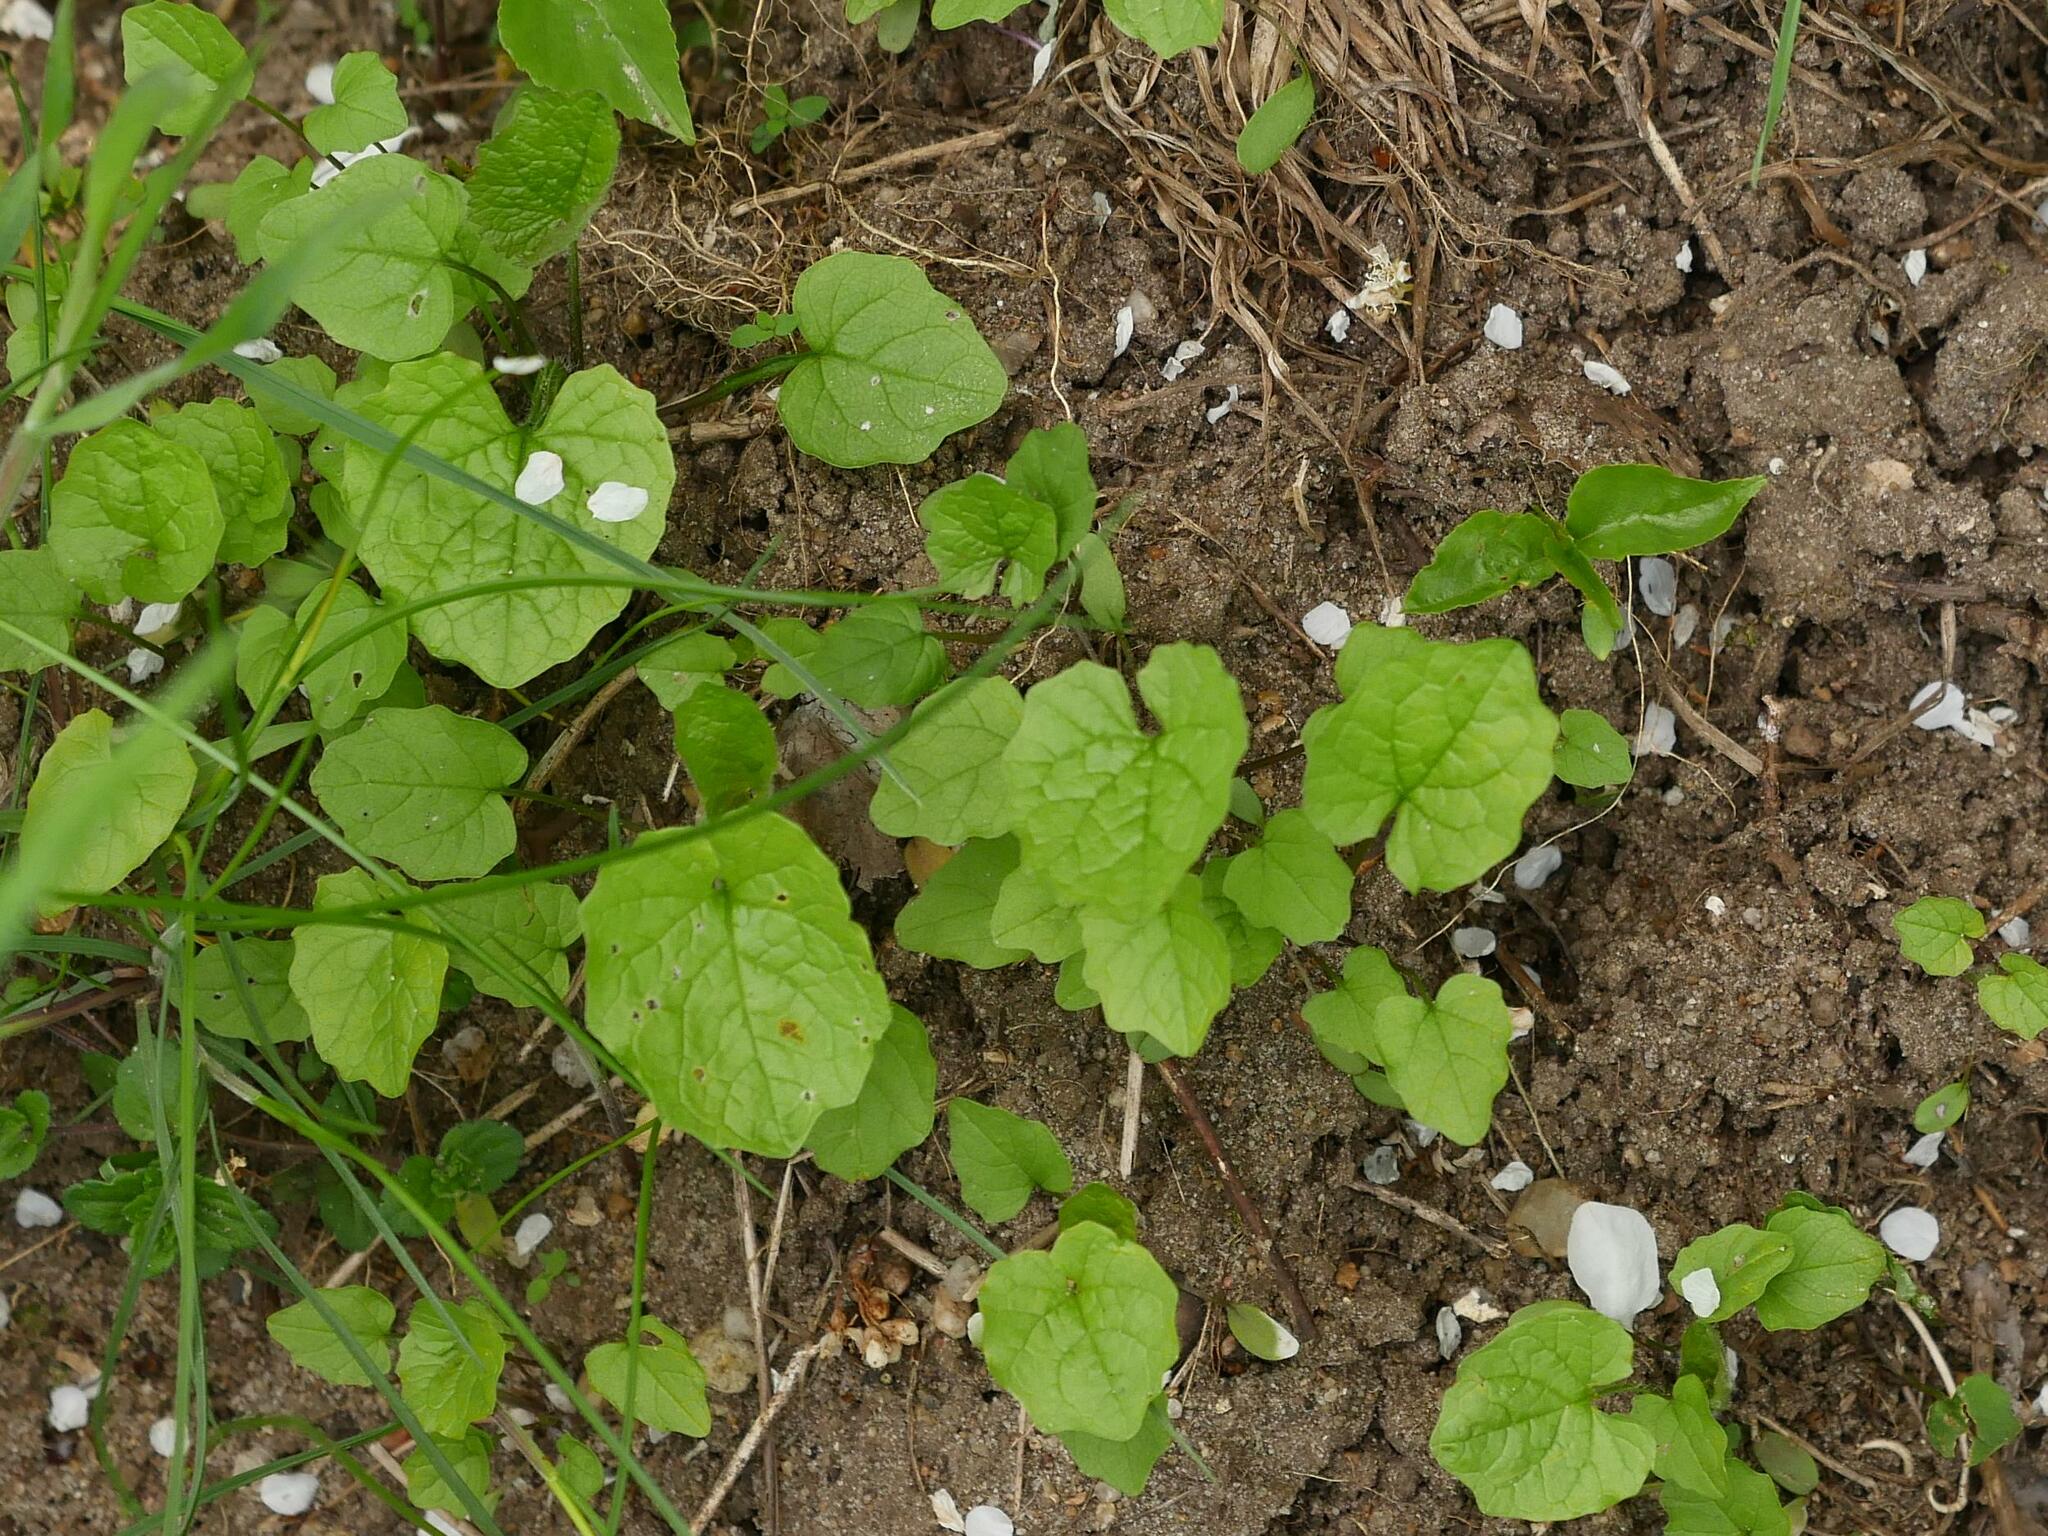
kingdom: Plantae
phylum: Tracheophyta
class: Magnoliopsida
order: Brassicales
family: Brassicaceae
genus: Alliaria
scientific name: Alliaria petiolata
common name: Garlic mustard
